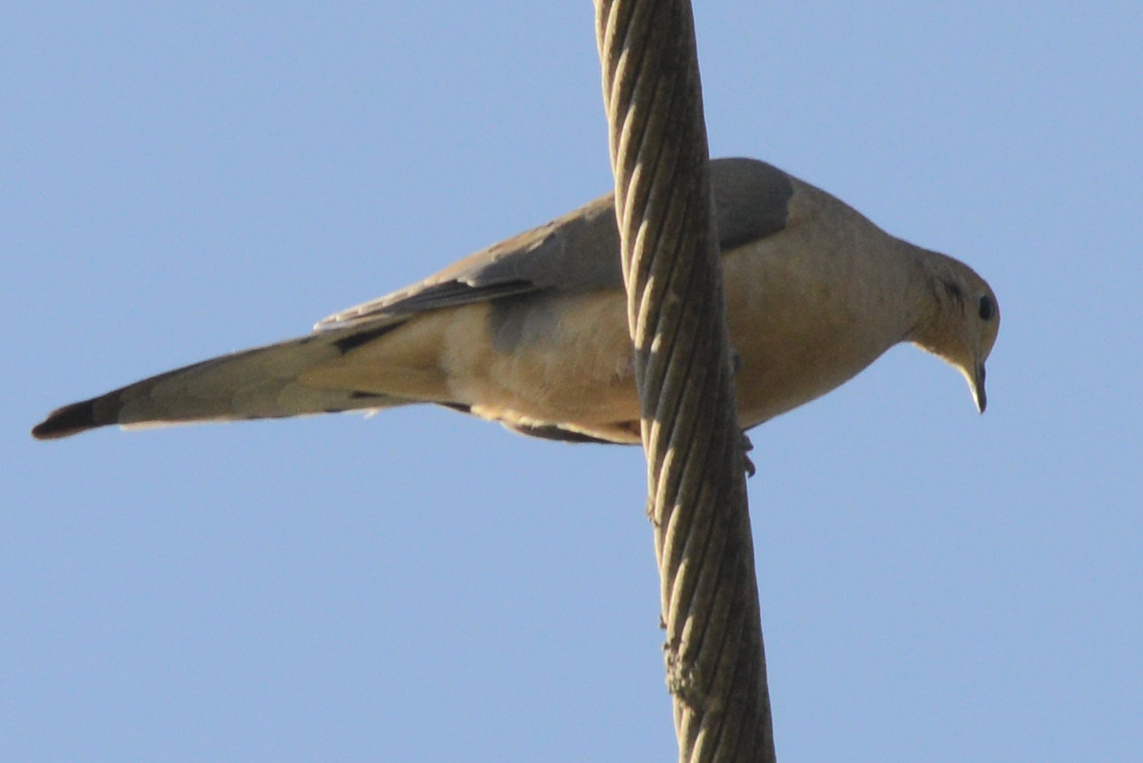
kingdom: Animalia
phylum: Chordata
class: Aves
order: Columbiformes
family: Columbidae
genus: Zenaida
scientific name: Zenaida macroura
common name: Mourning dove
